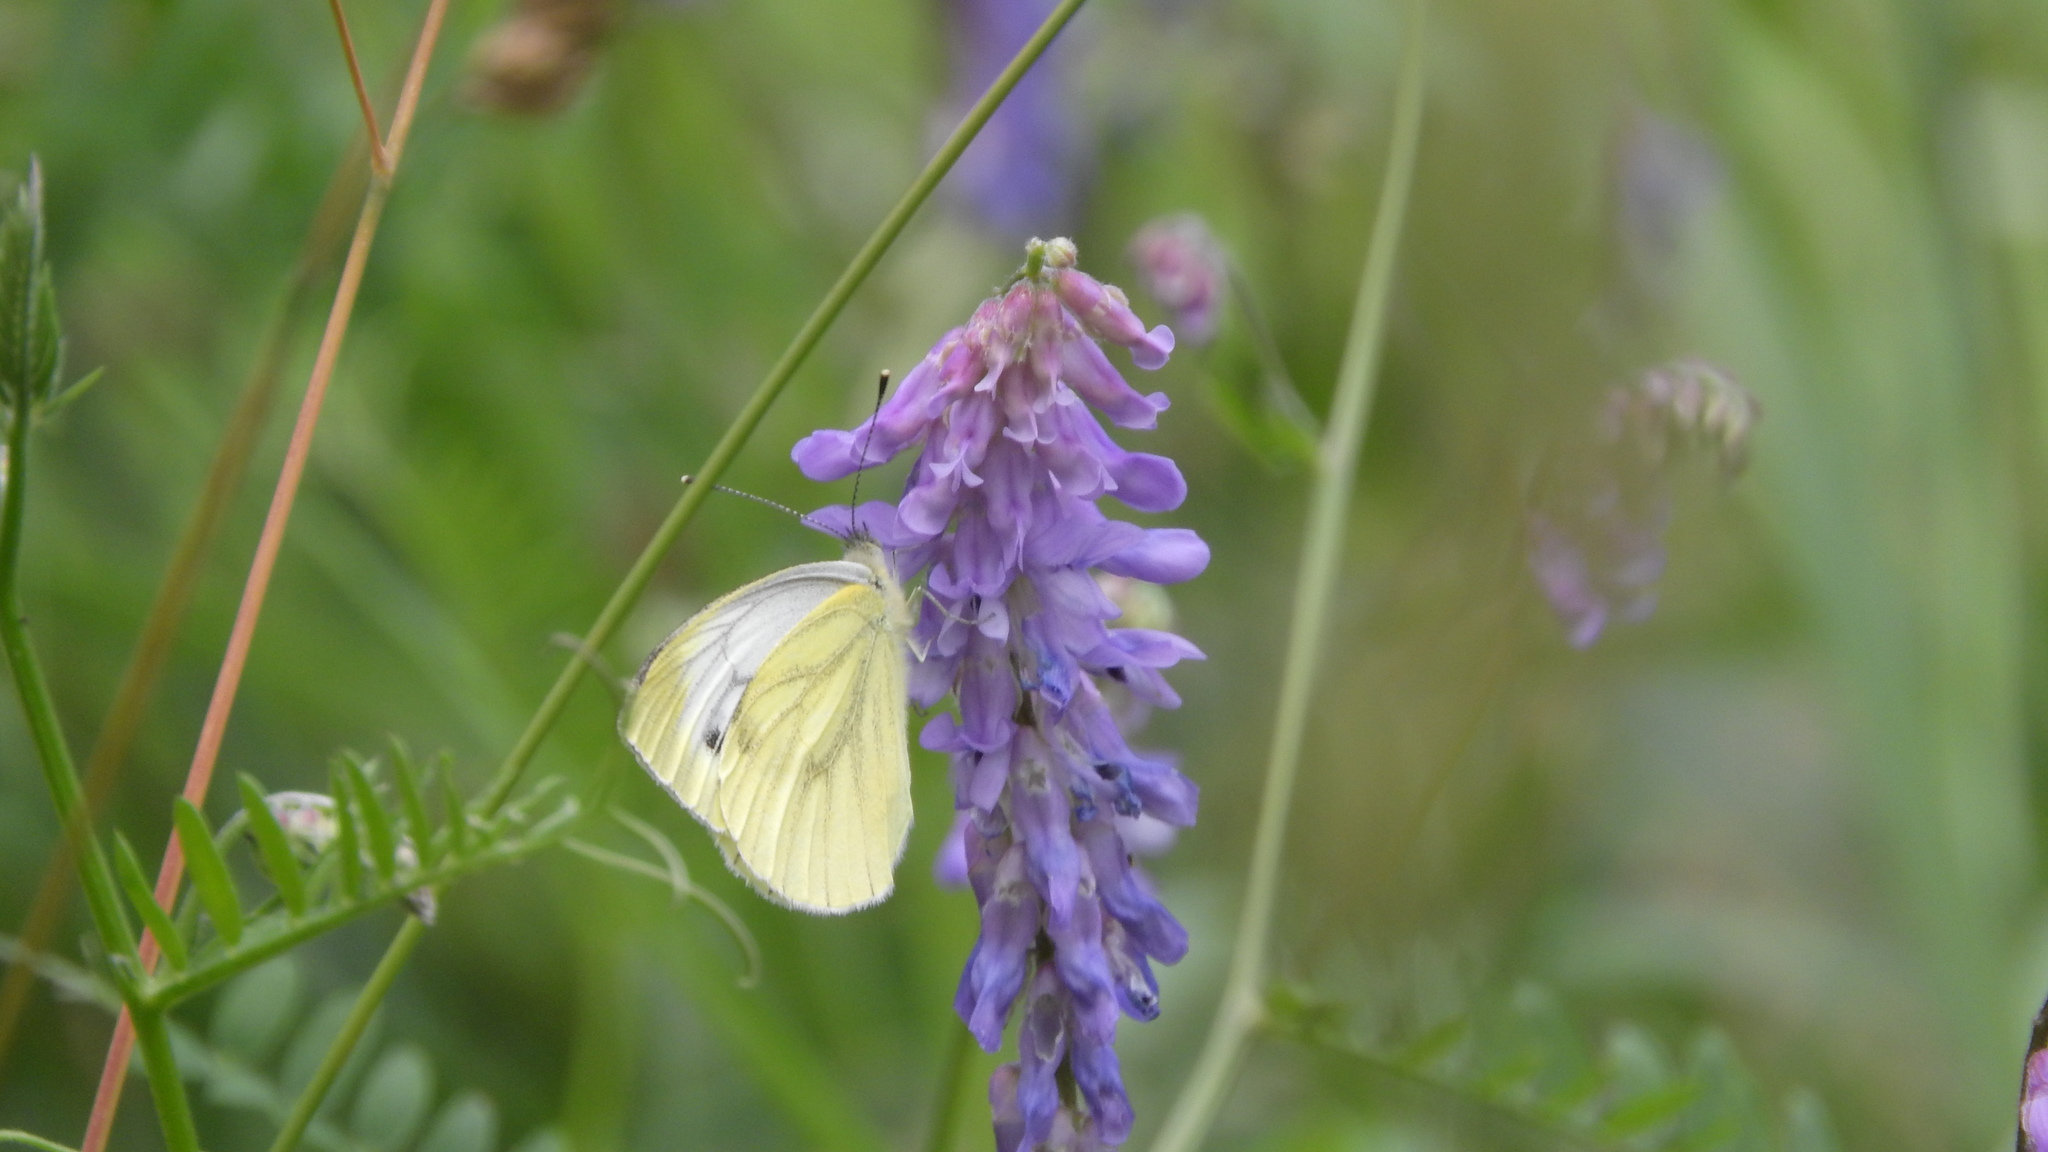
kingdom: Animalia
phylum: Arthropoda
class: Insecta
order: Lepidoptera
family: Pieridae
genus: Pieris
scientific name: Pieris napi
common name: Green-veined white
